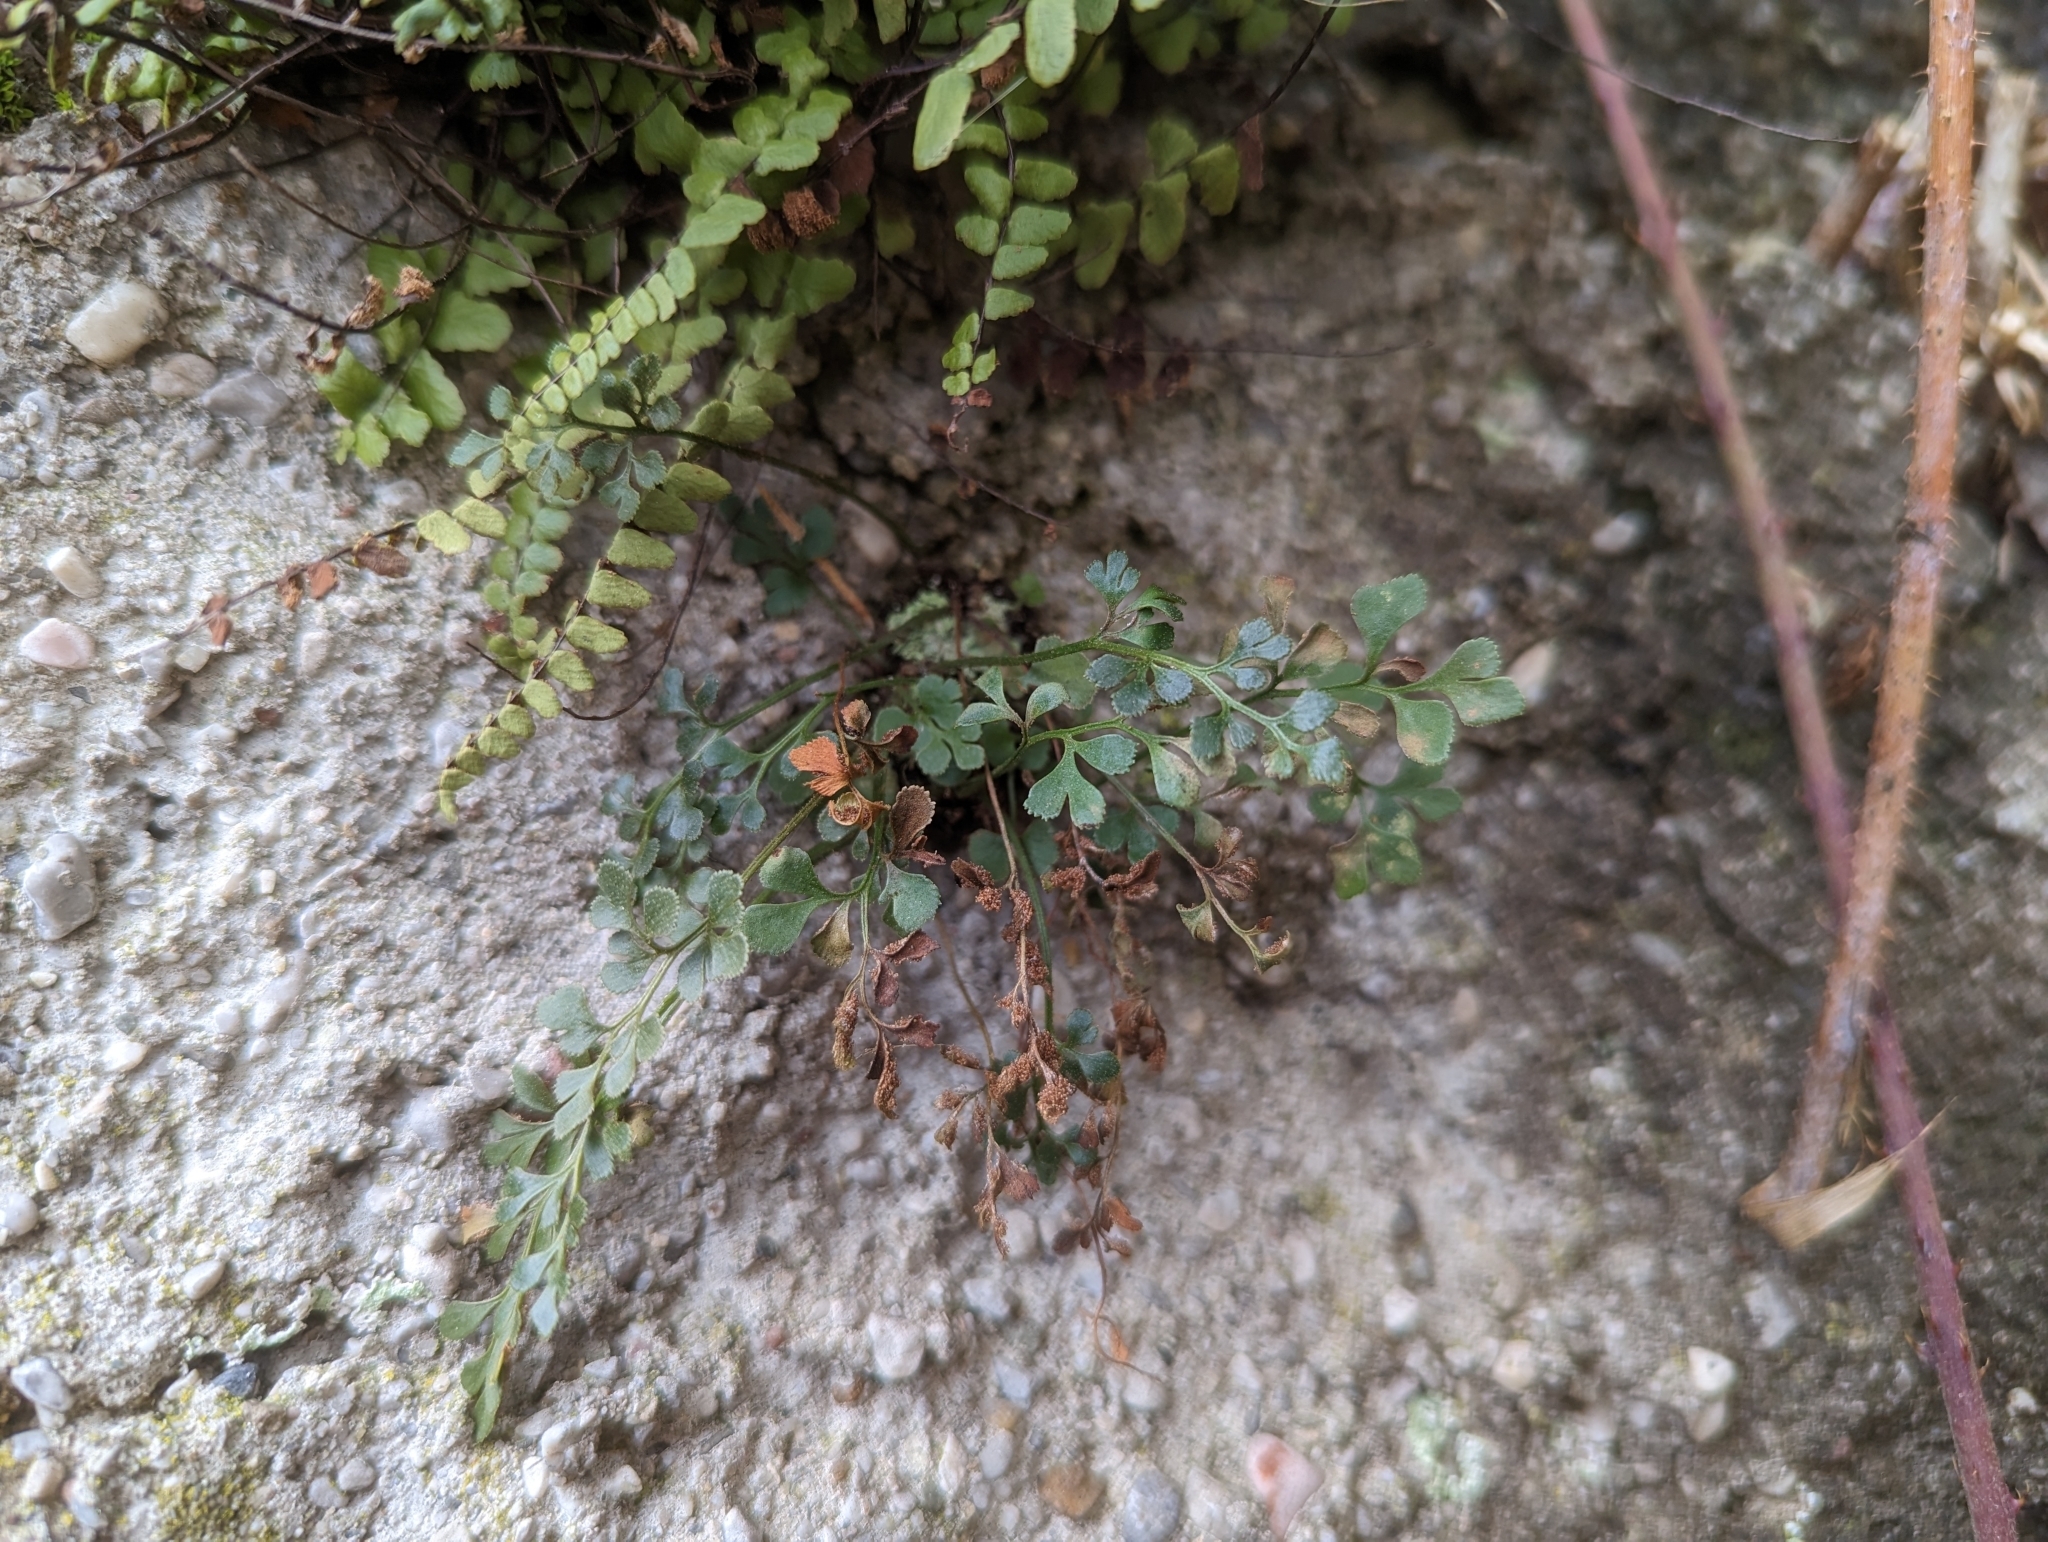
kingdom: Plantae
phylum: Tracheophyta
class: Polypodiopsida
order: Polypodiales
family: Aspleniaceae
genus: Asplenium
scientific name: Asplenium ruta-muraria
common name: Wall-rue
